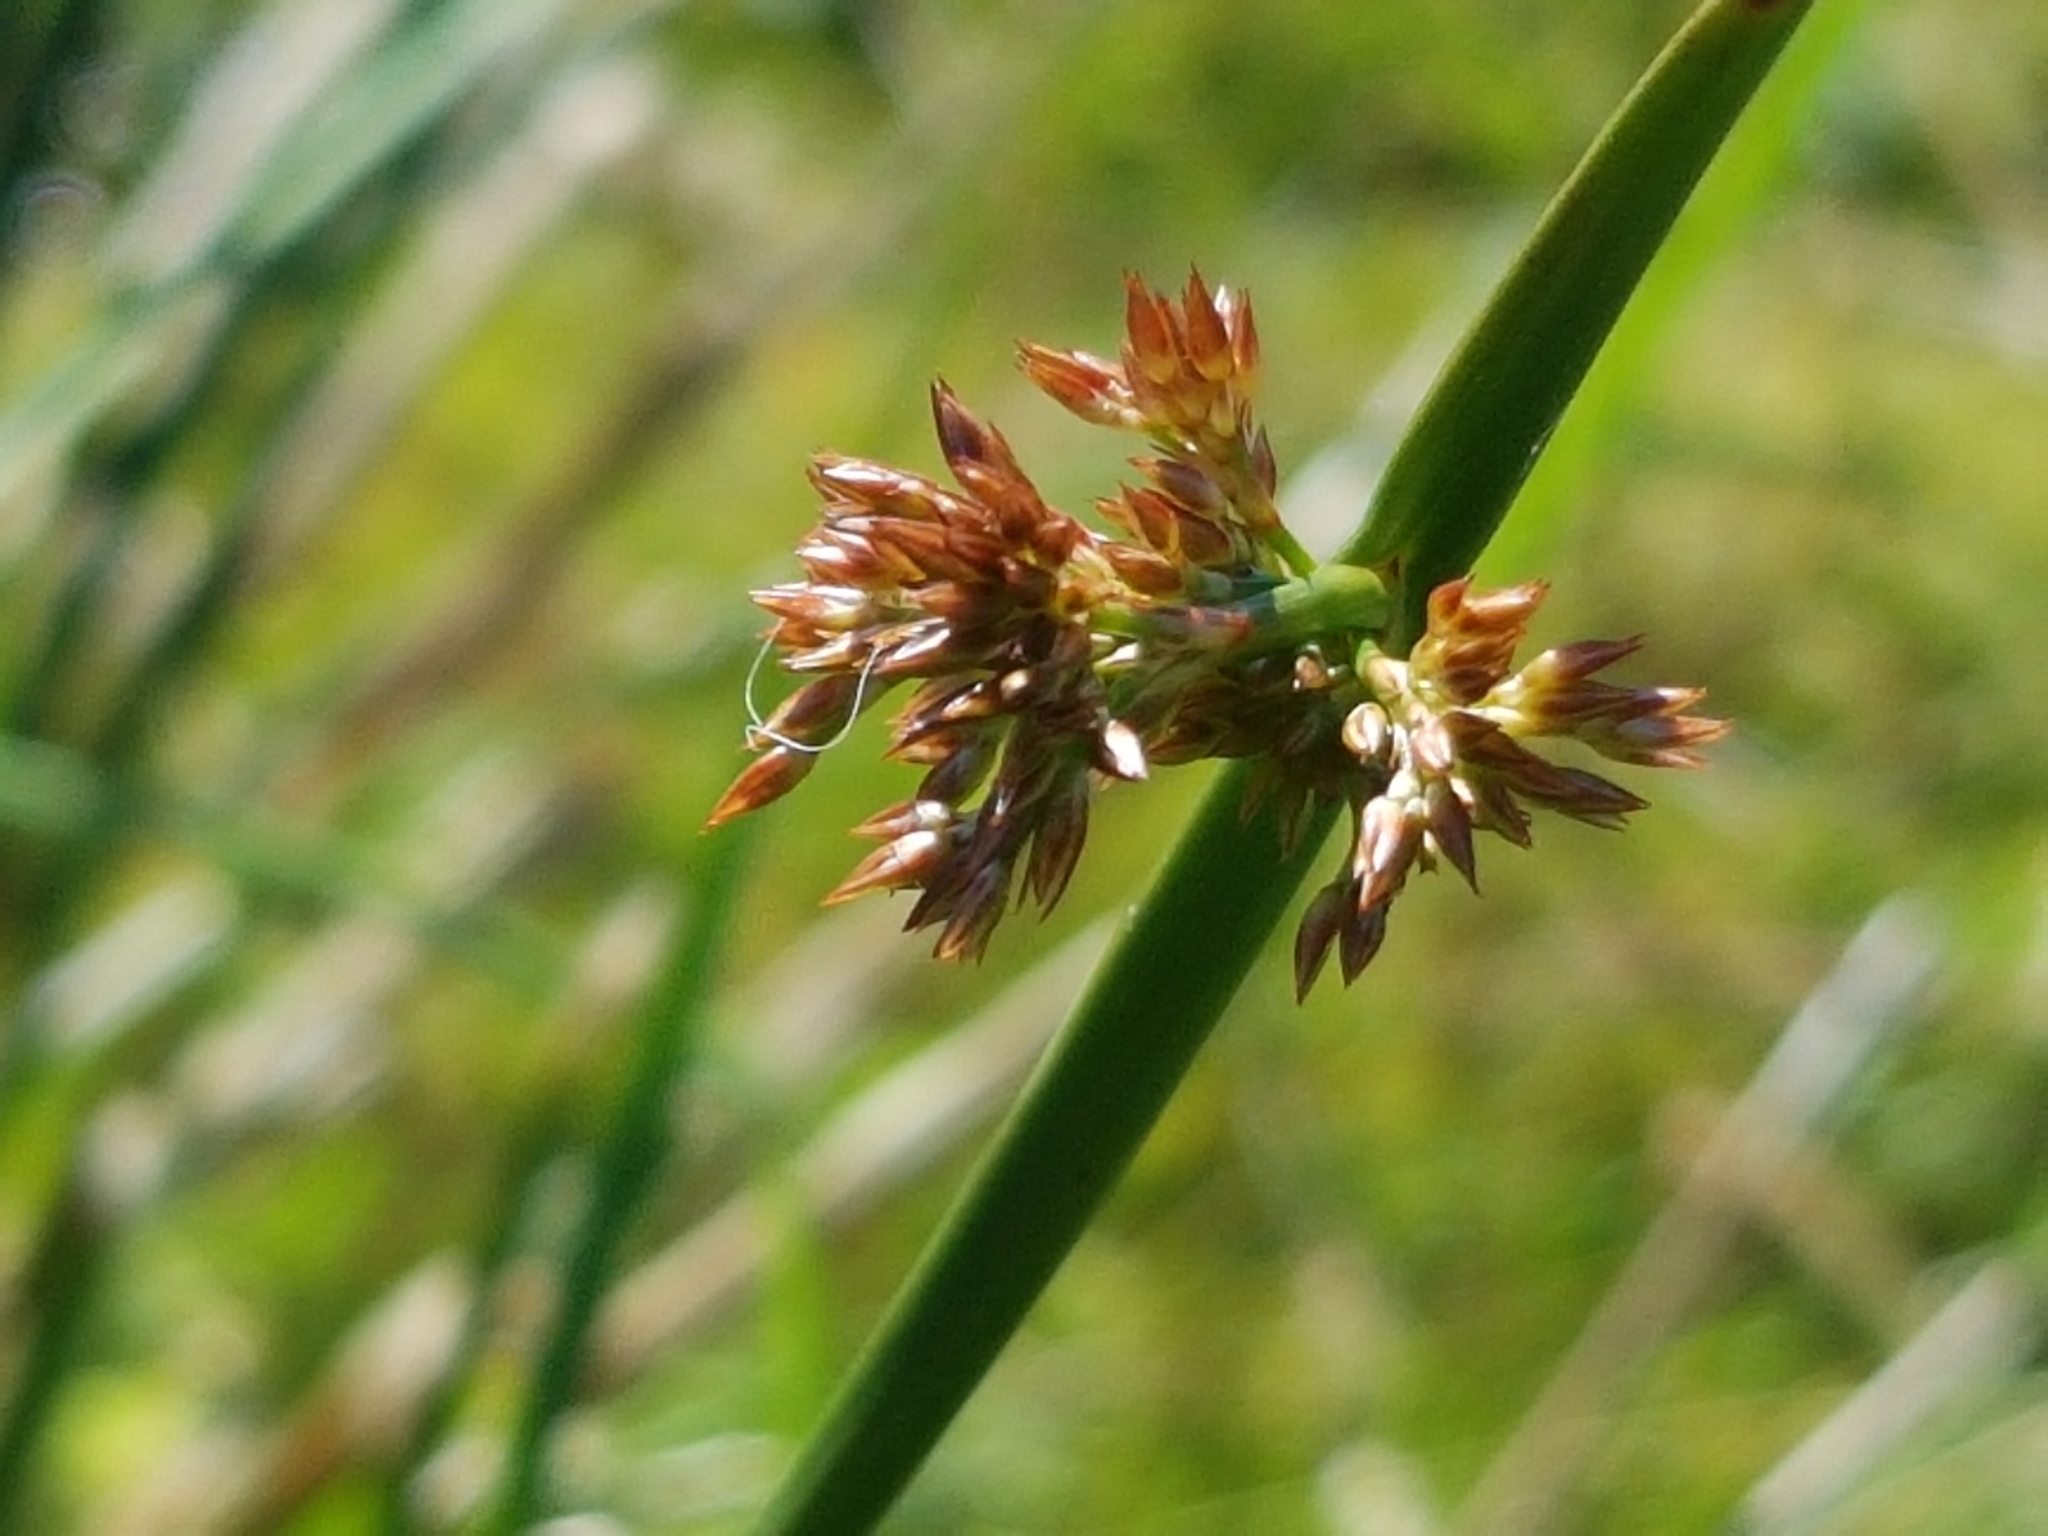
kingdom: Plantae
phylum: Tracheophyta
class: Liliopsida
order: Poales
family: Juncaceae
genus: Juncus
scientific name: Juncus effusus
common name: Soft rush
